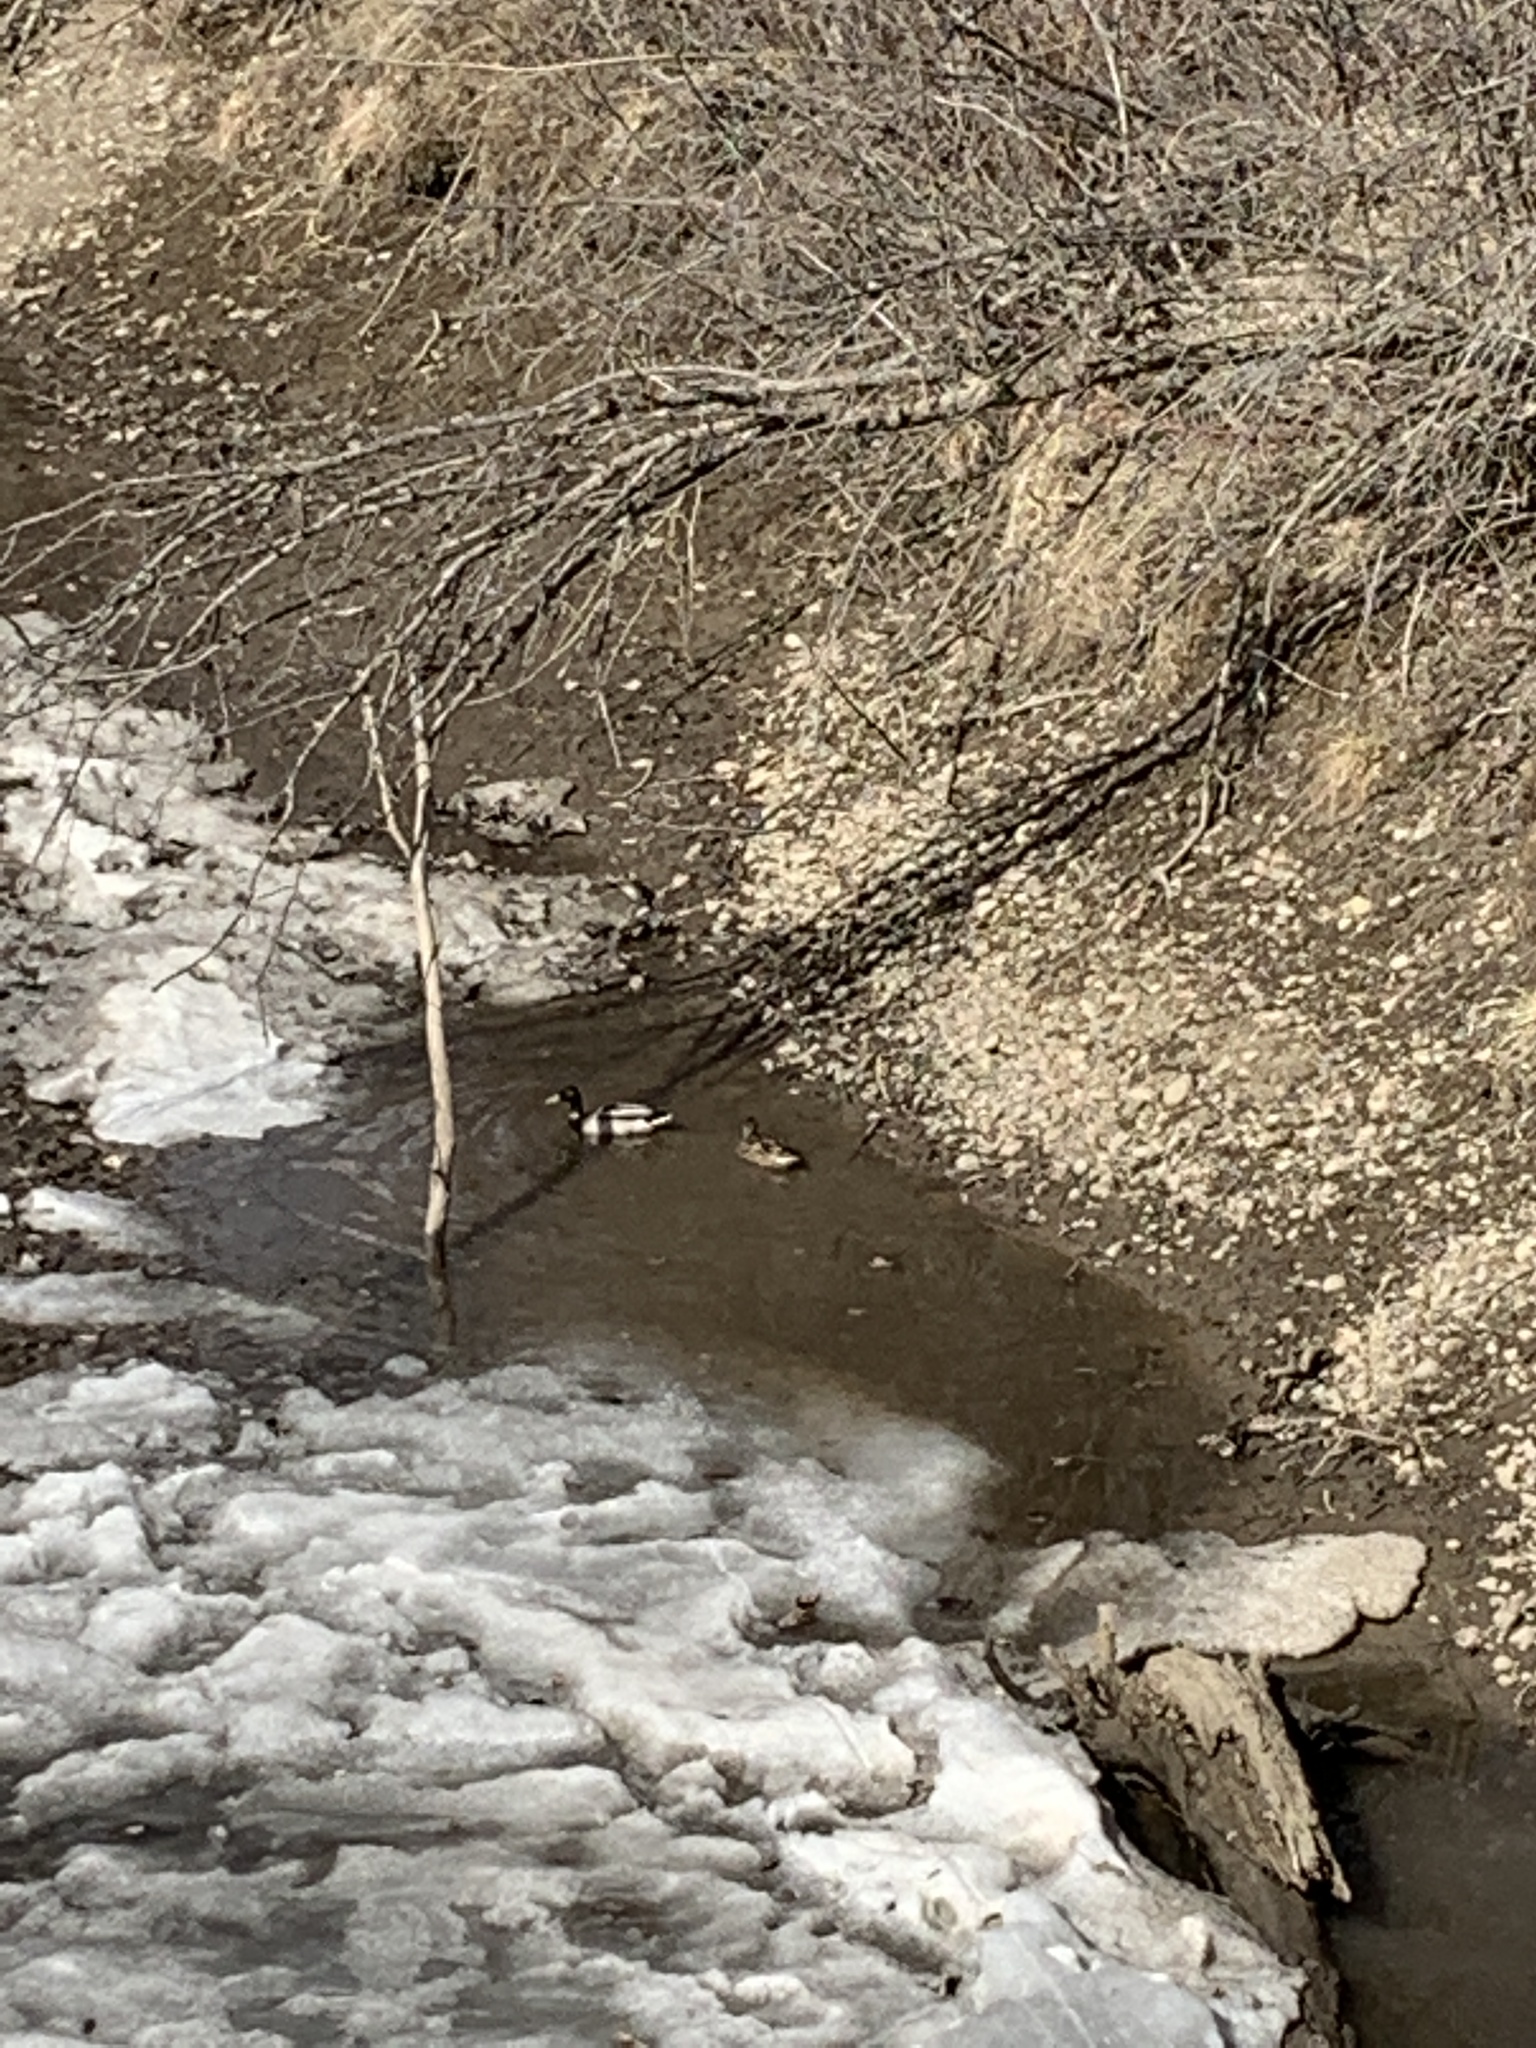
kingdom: Animalia
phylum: Chordata
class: Aves
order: Anseriformes
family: Anatidae
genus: Anas
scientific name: Anas platyrhynchos
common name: Mallard
